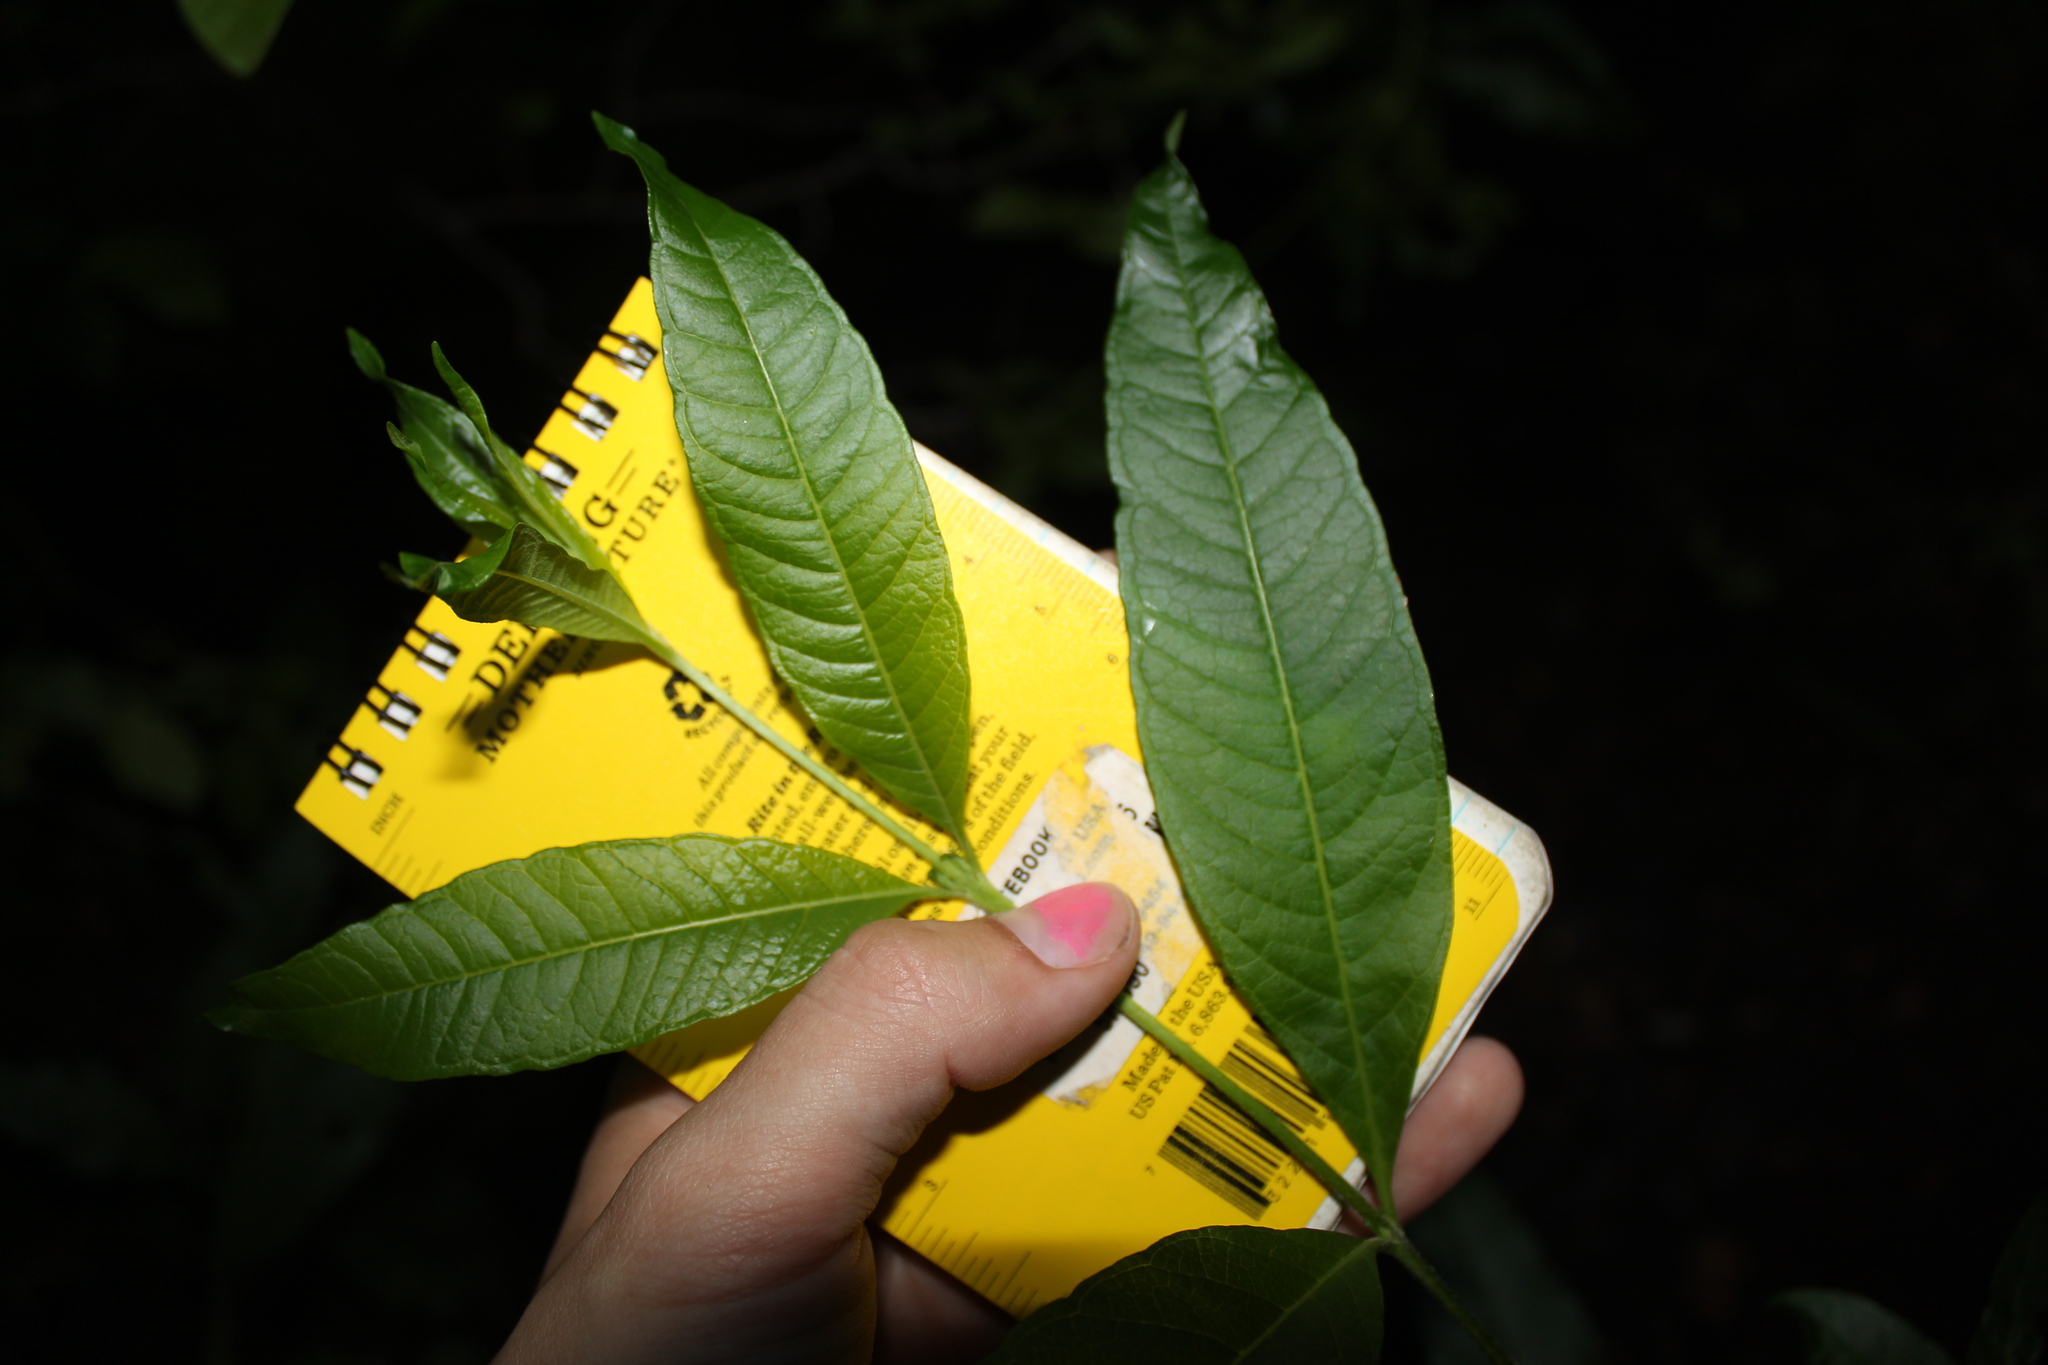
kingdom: Plantae
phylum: Tracheophyta
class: Magnoliopsida
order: Gentianales
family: Rubiaceae
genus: Cephalanthus
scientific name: Cephalanthus occidentalis
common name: Button-willow
